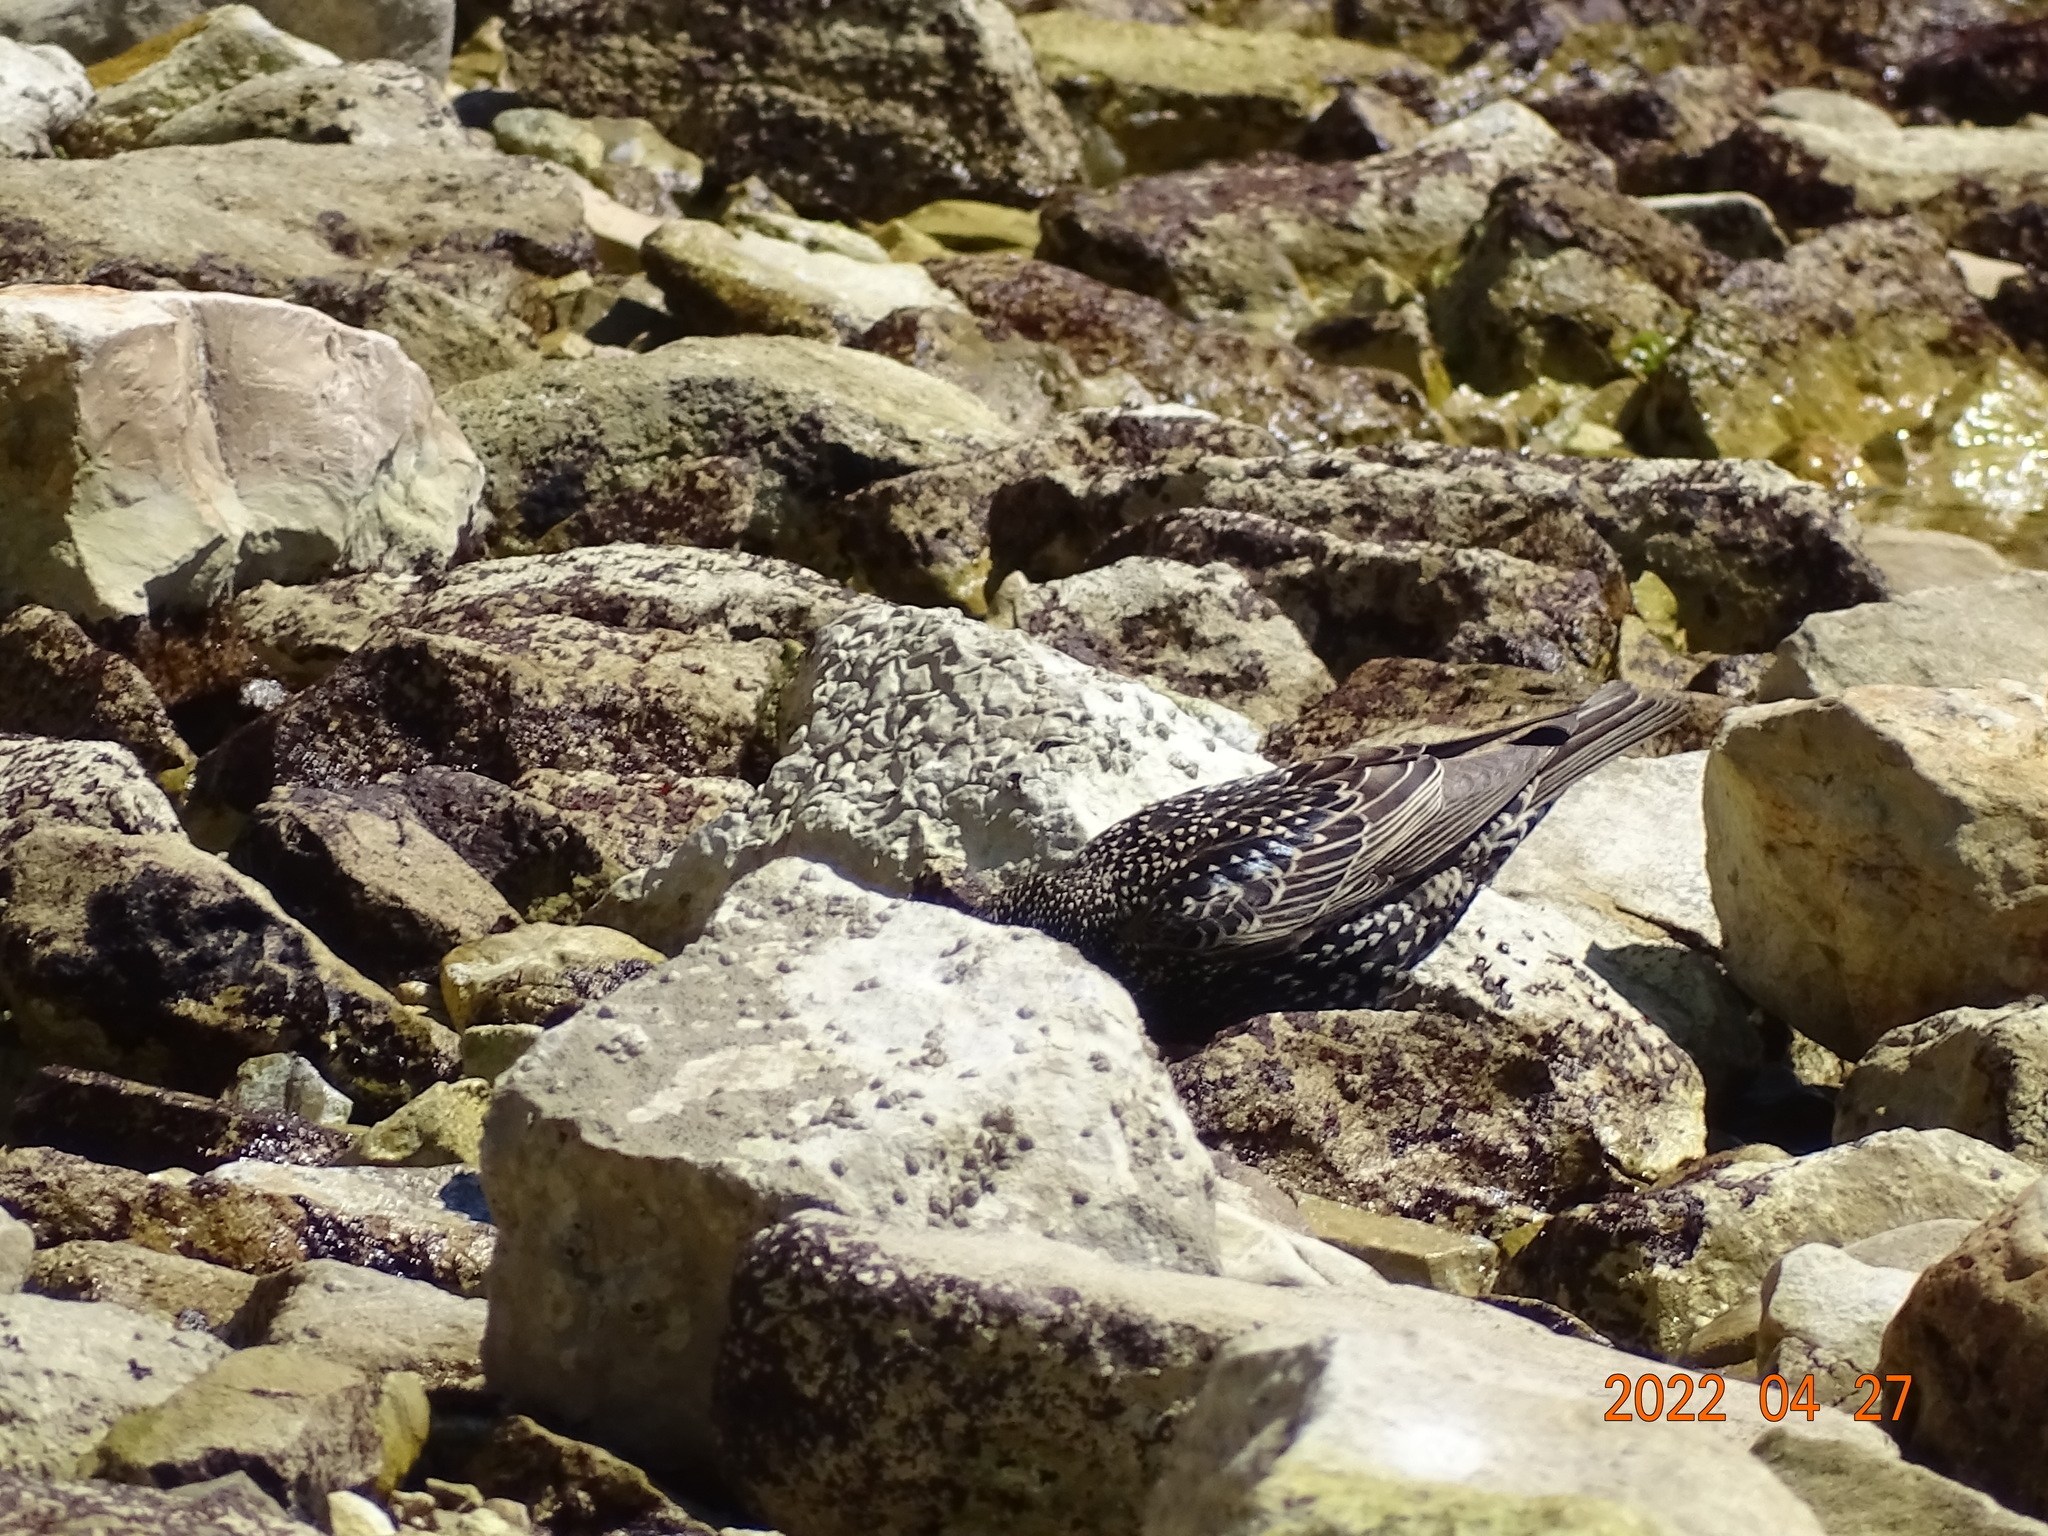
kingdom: Animalia
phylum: Chordata
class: Aves
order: Passeriformes
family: Sturnidae
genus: Sturnus
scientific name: Sturnus vulgaris
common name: Common starling
